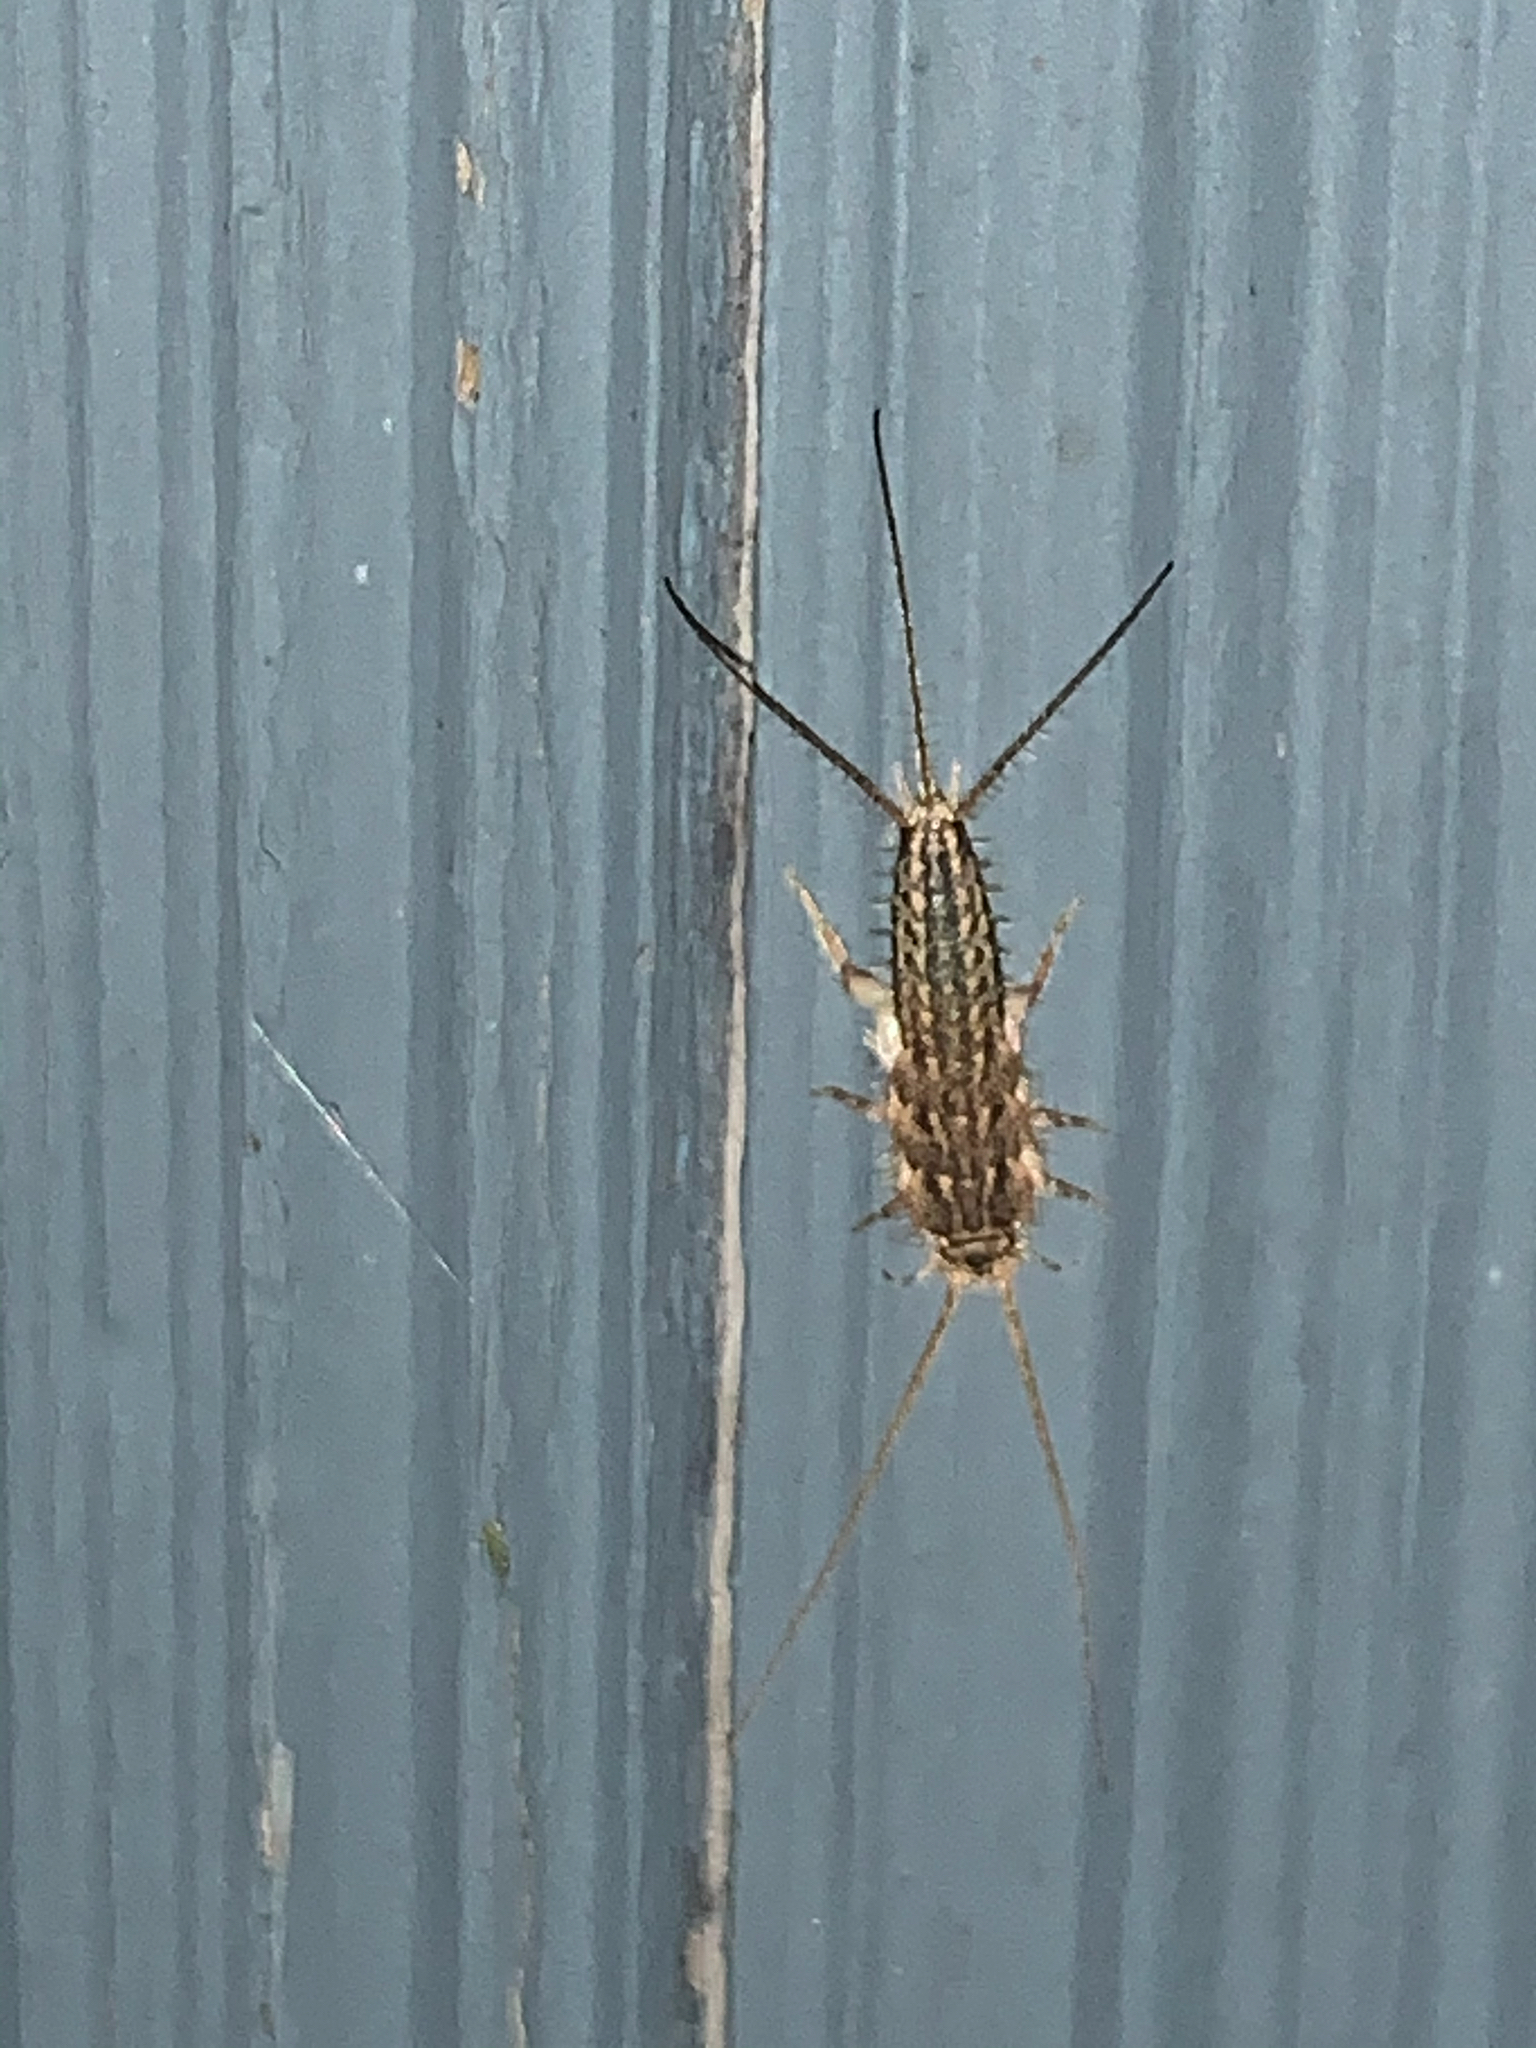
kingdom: Animalia
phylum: Arthropoda
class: Insecta
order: Zygentoma
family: Lepismatidae
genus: Ctenolepisma
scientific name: Ctenolepisma lineata
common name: Four-lined silverfish
